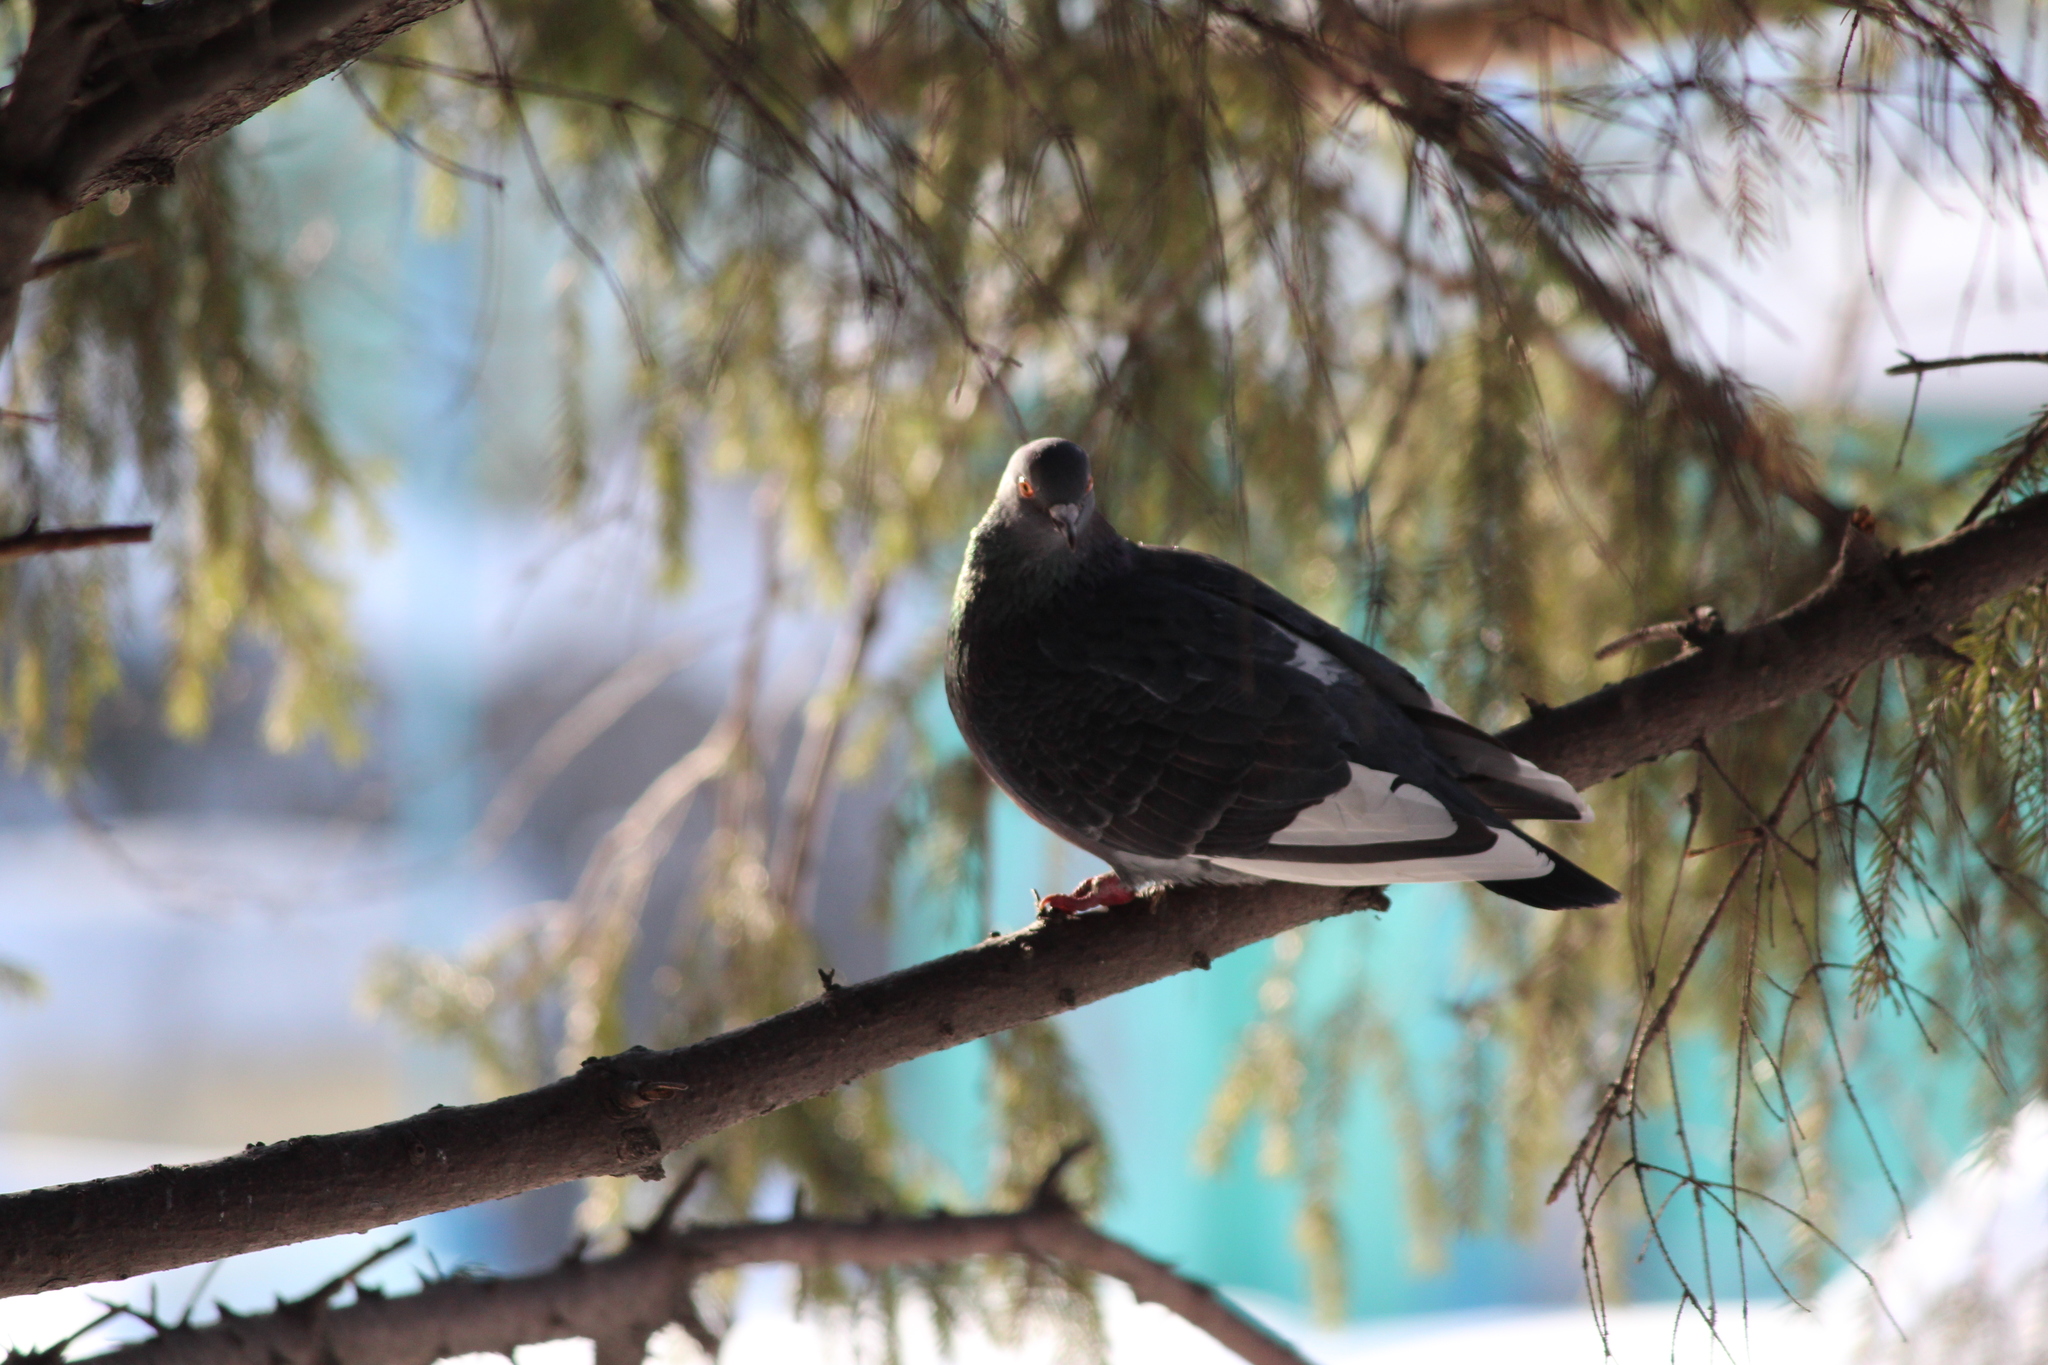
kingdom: Animalia
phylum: Chordata
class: Aves
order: Columbiformes
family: Columbidae
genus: Columba
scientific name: Columba livia
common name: Rock pigeon
